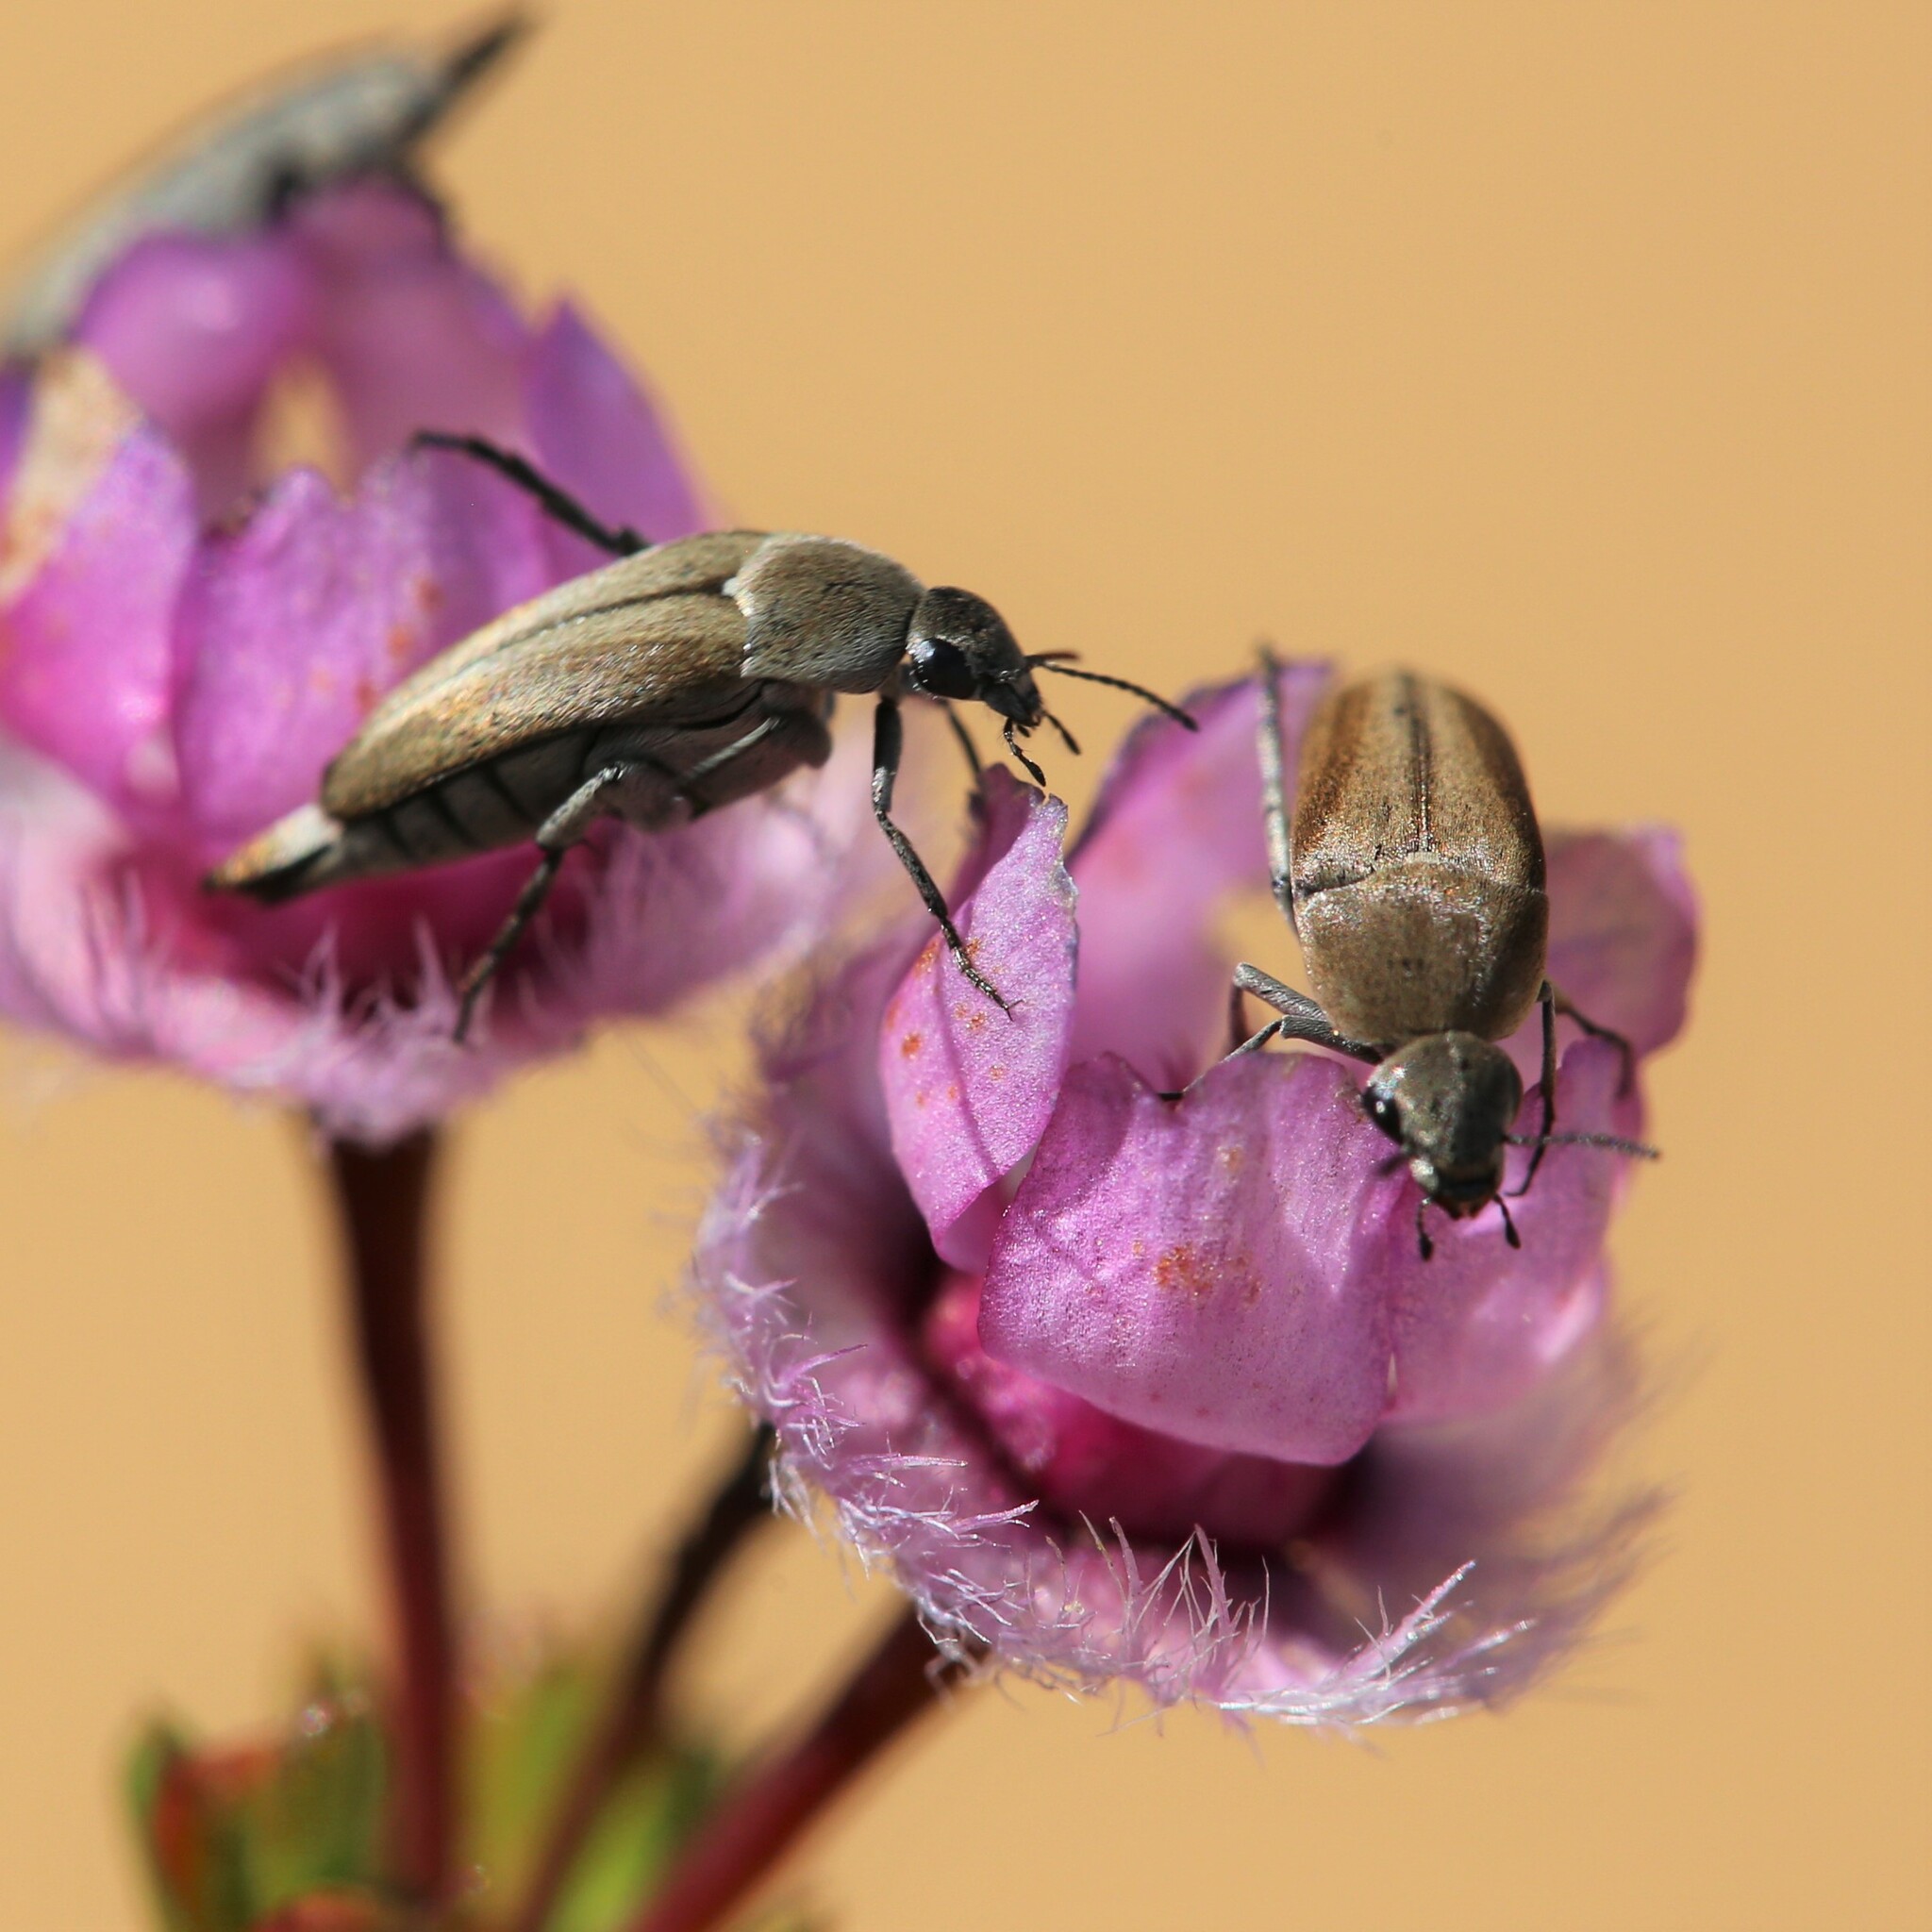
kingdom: Animalia
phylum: Arthropoda
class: Insecta
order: Coleoptera
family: Mordellidae
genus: Austromordella
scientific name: Austromordella
